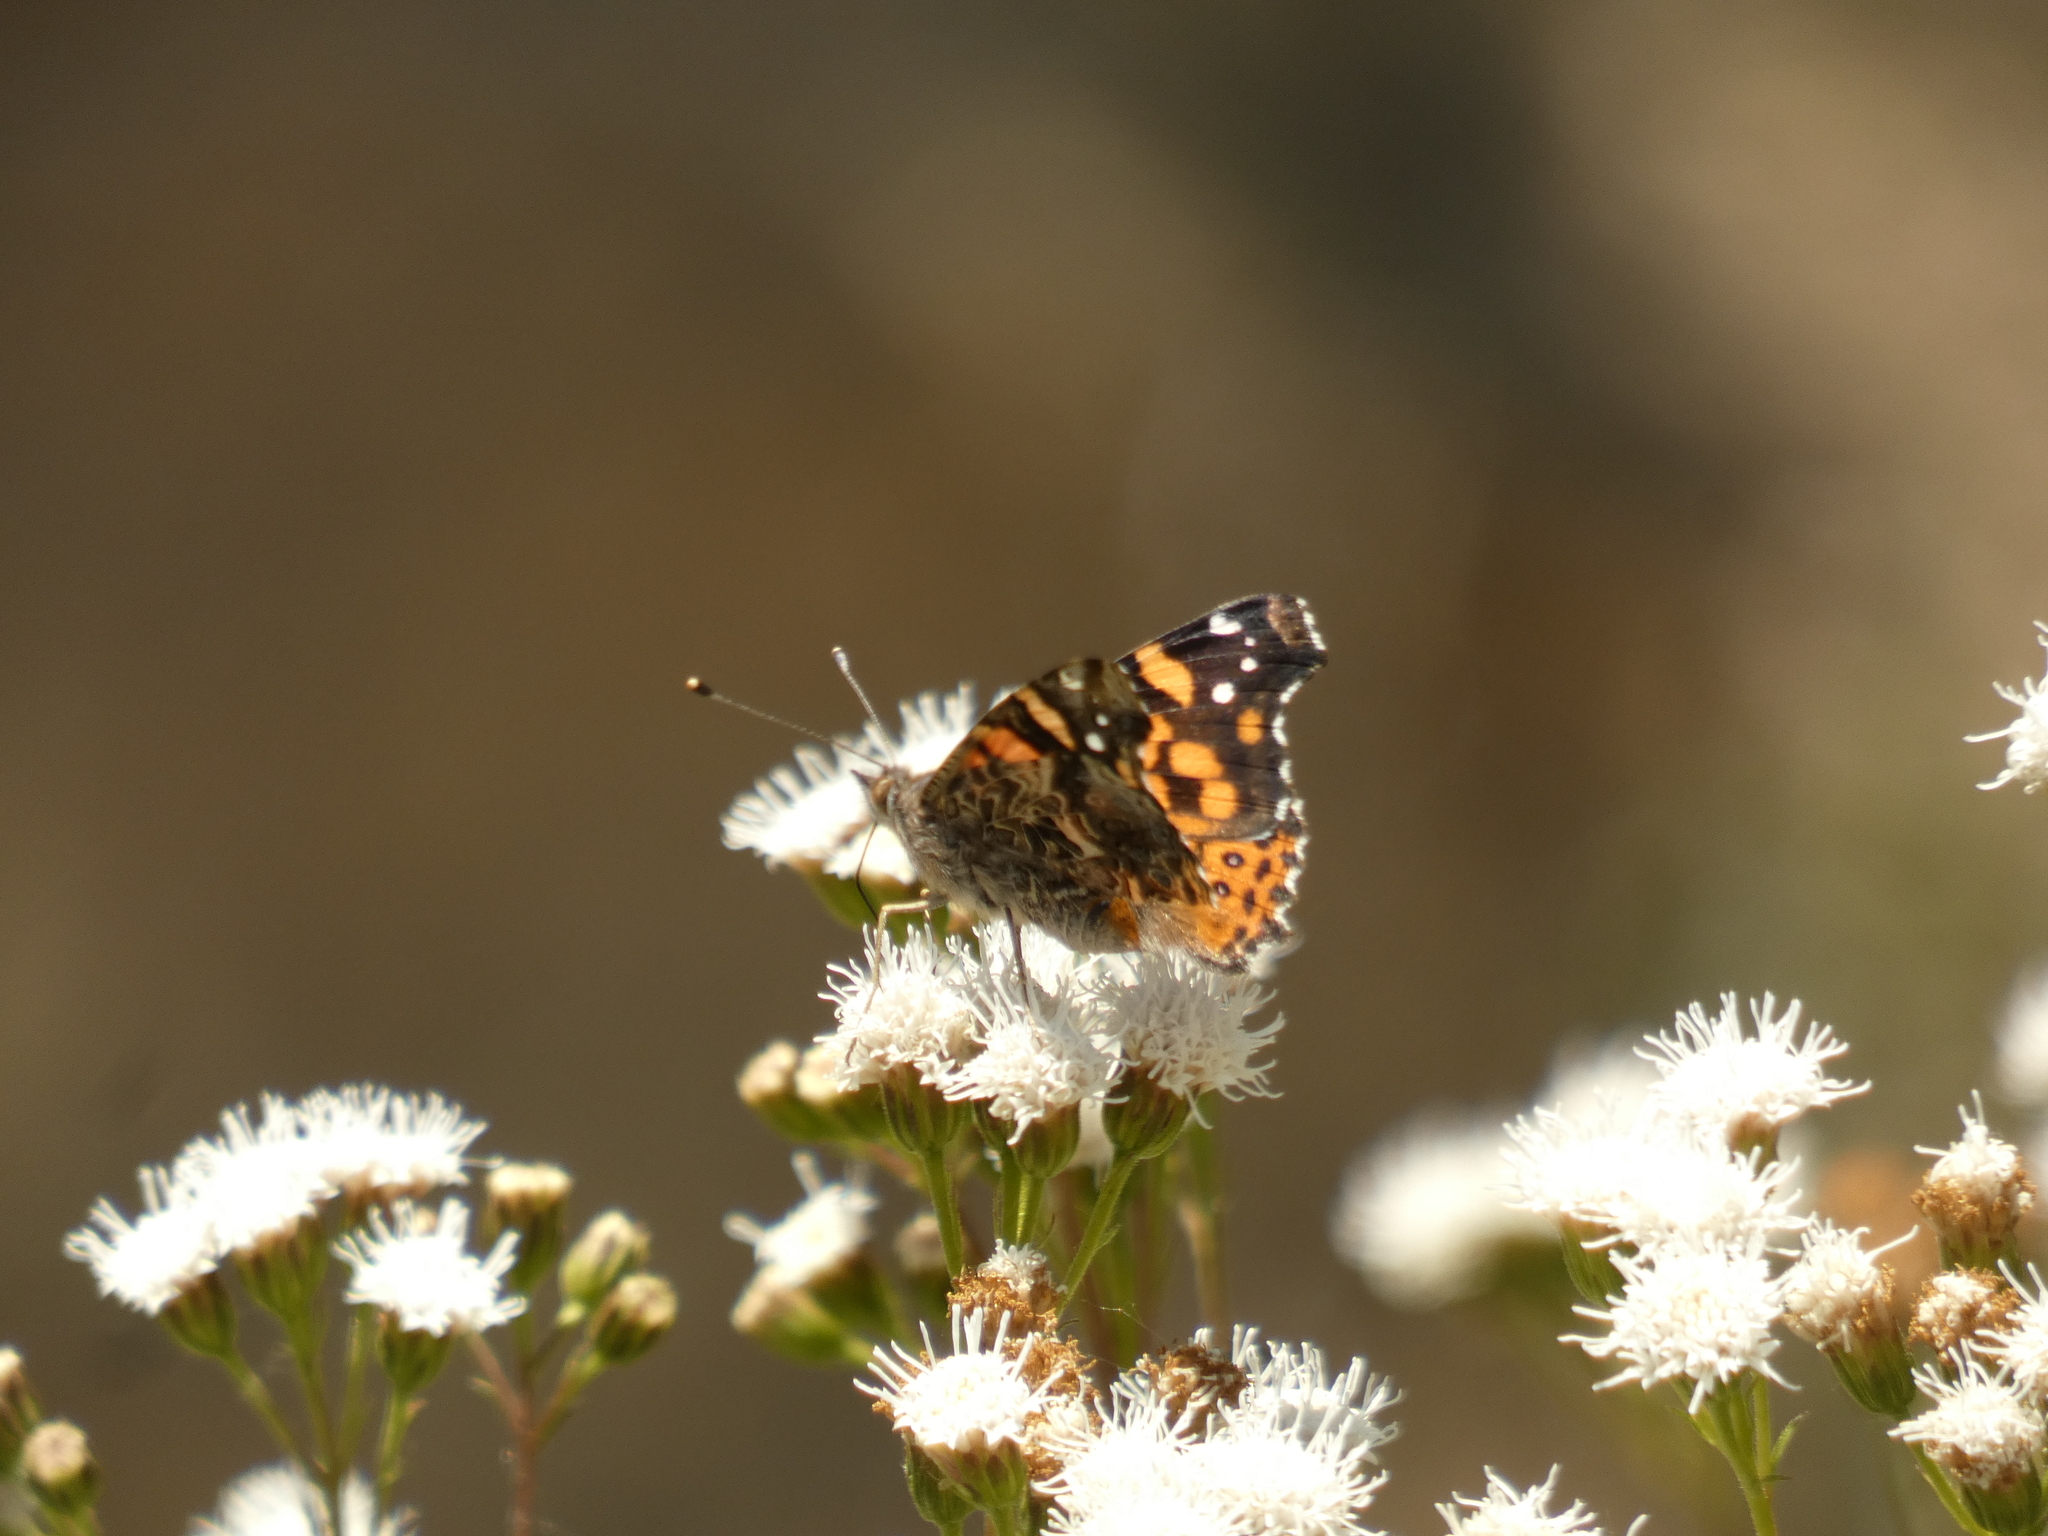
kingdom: Animalia
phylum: Arthropoda
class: Insecta
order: Lepidoptera
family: Nymphalidae
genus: Vanessa
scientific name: Vanessa carye
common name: Subtropical lady
